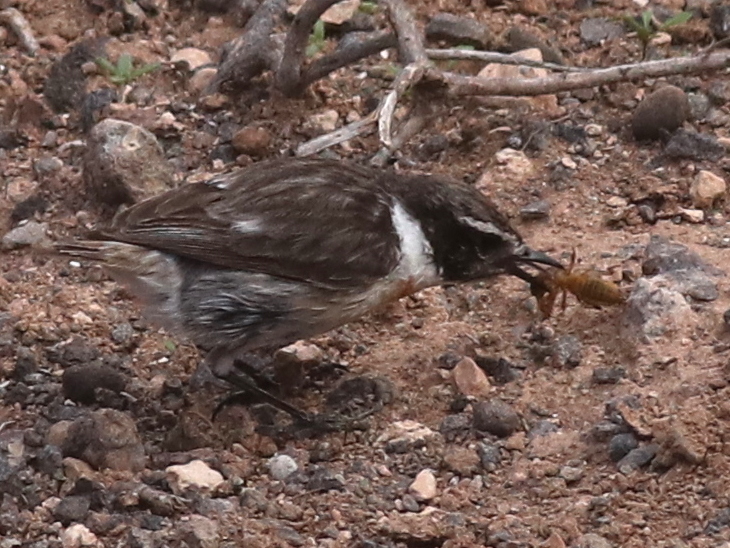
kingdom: Animalia
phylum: Chordata
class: Aves
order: Passeriformes
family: Muscicapidae
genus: Saxicola
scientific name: Saxicola dacotiae
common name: Canary islands stonechat
